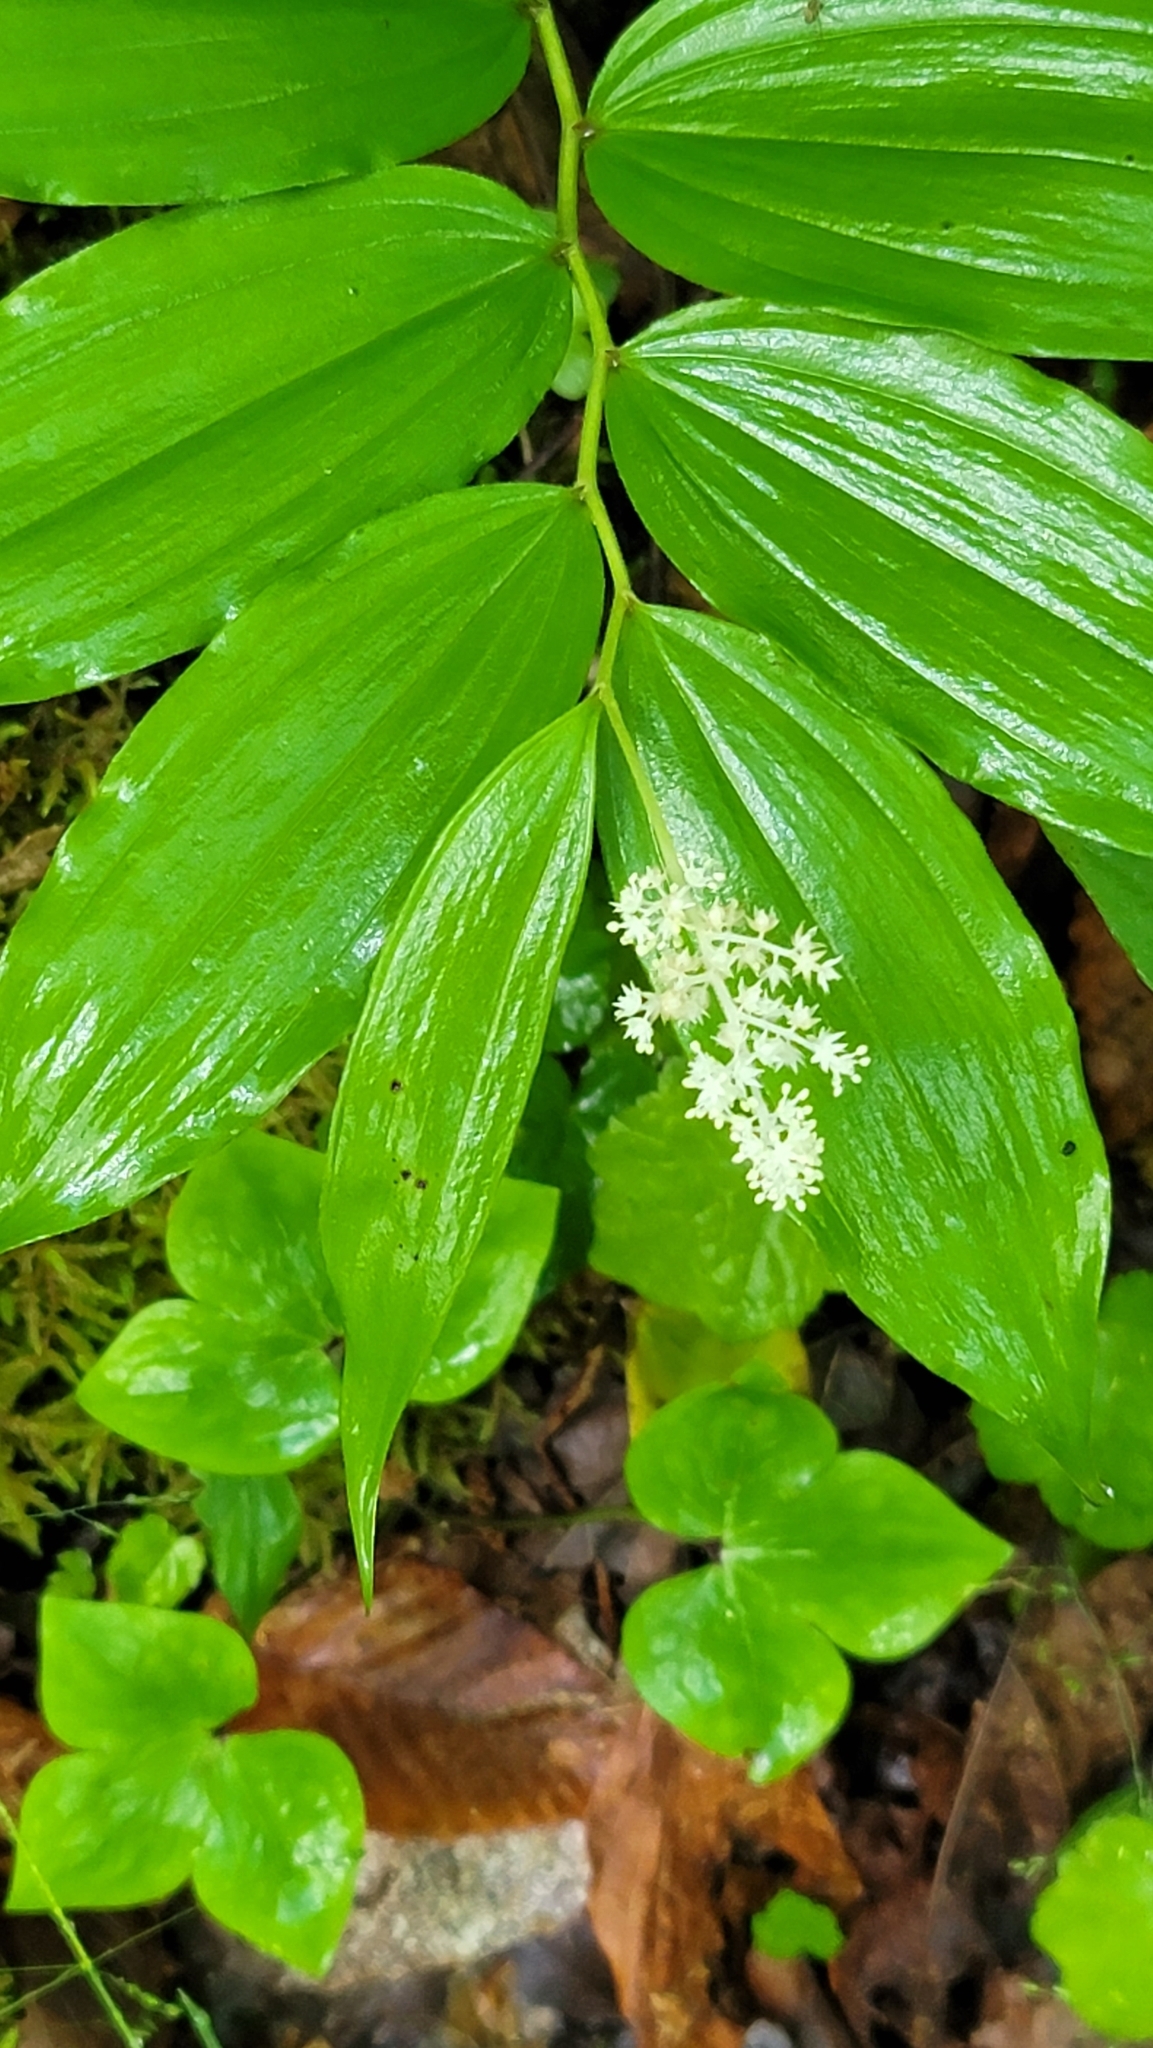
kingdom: Plantae
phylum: Tracheophyta
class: Liliopsida
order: Asparagales
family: Asparagaceae
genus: Maianthemum
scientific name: Maianthemum racemosum
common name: False spikenard
